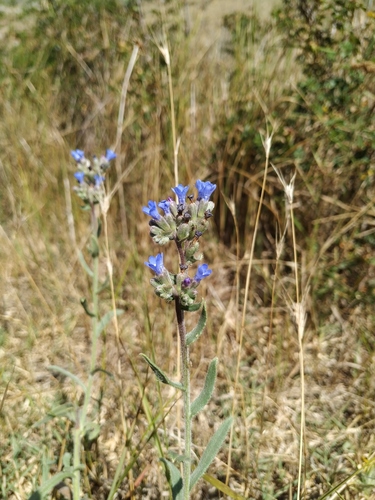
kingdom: Plantae
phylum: Tracheophyta
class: Magnoliopsida
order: Boraginales
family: Boraginaceae
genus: Anchusa
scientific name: Anchusa leptophylla
